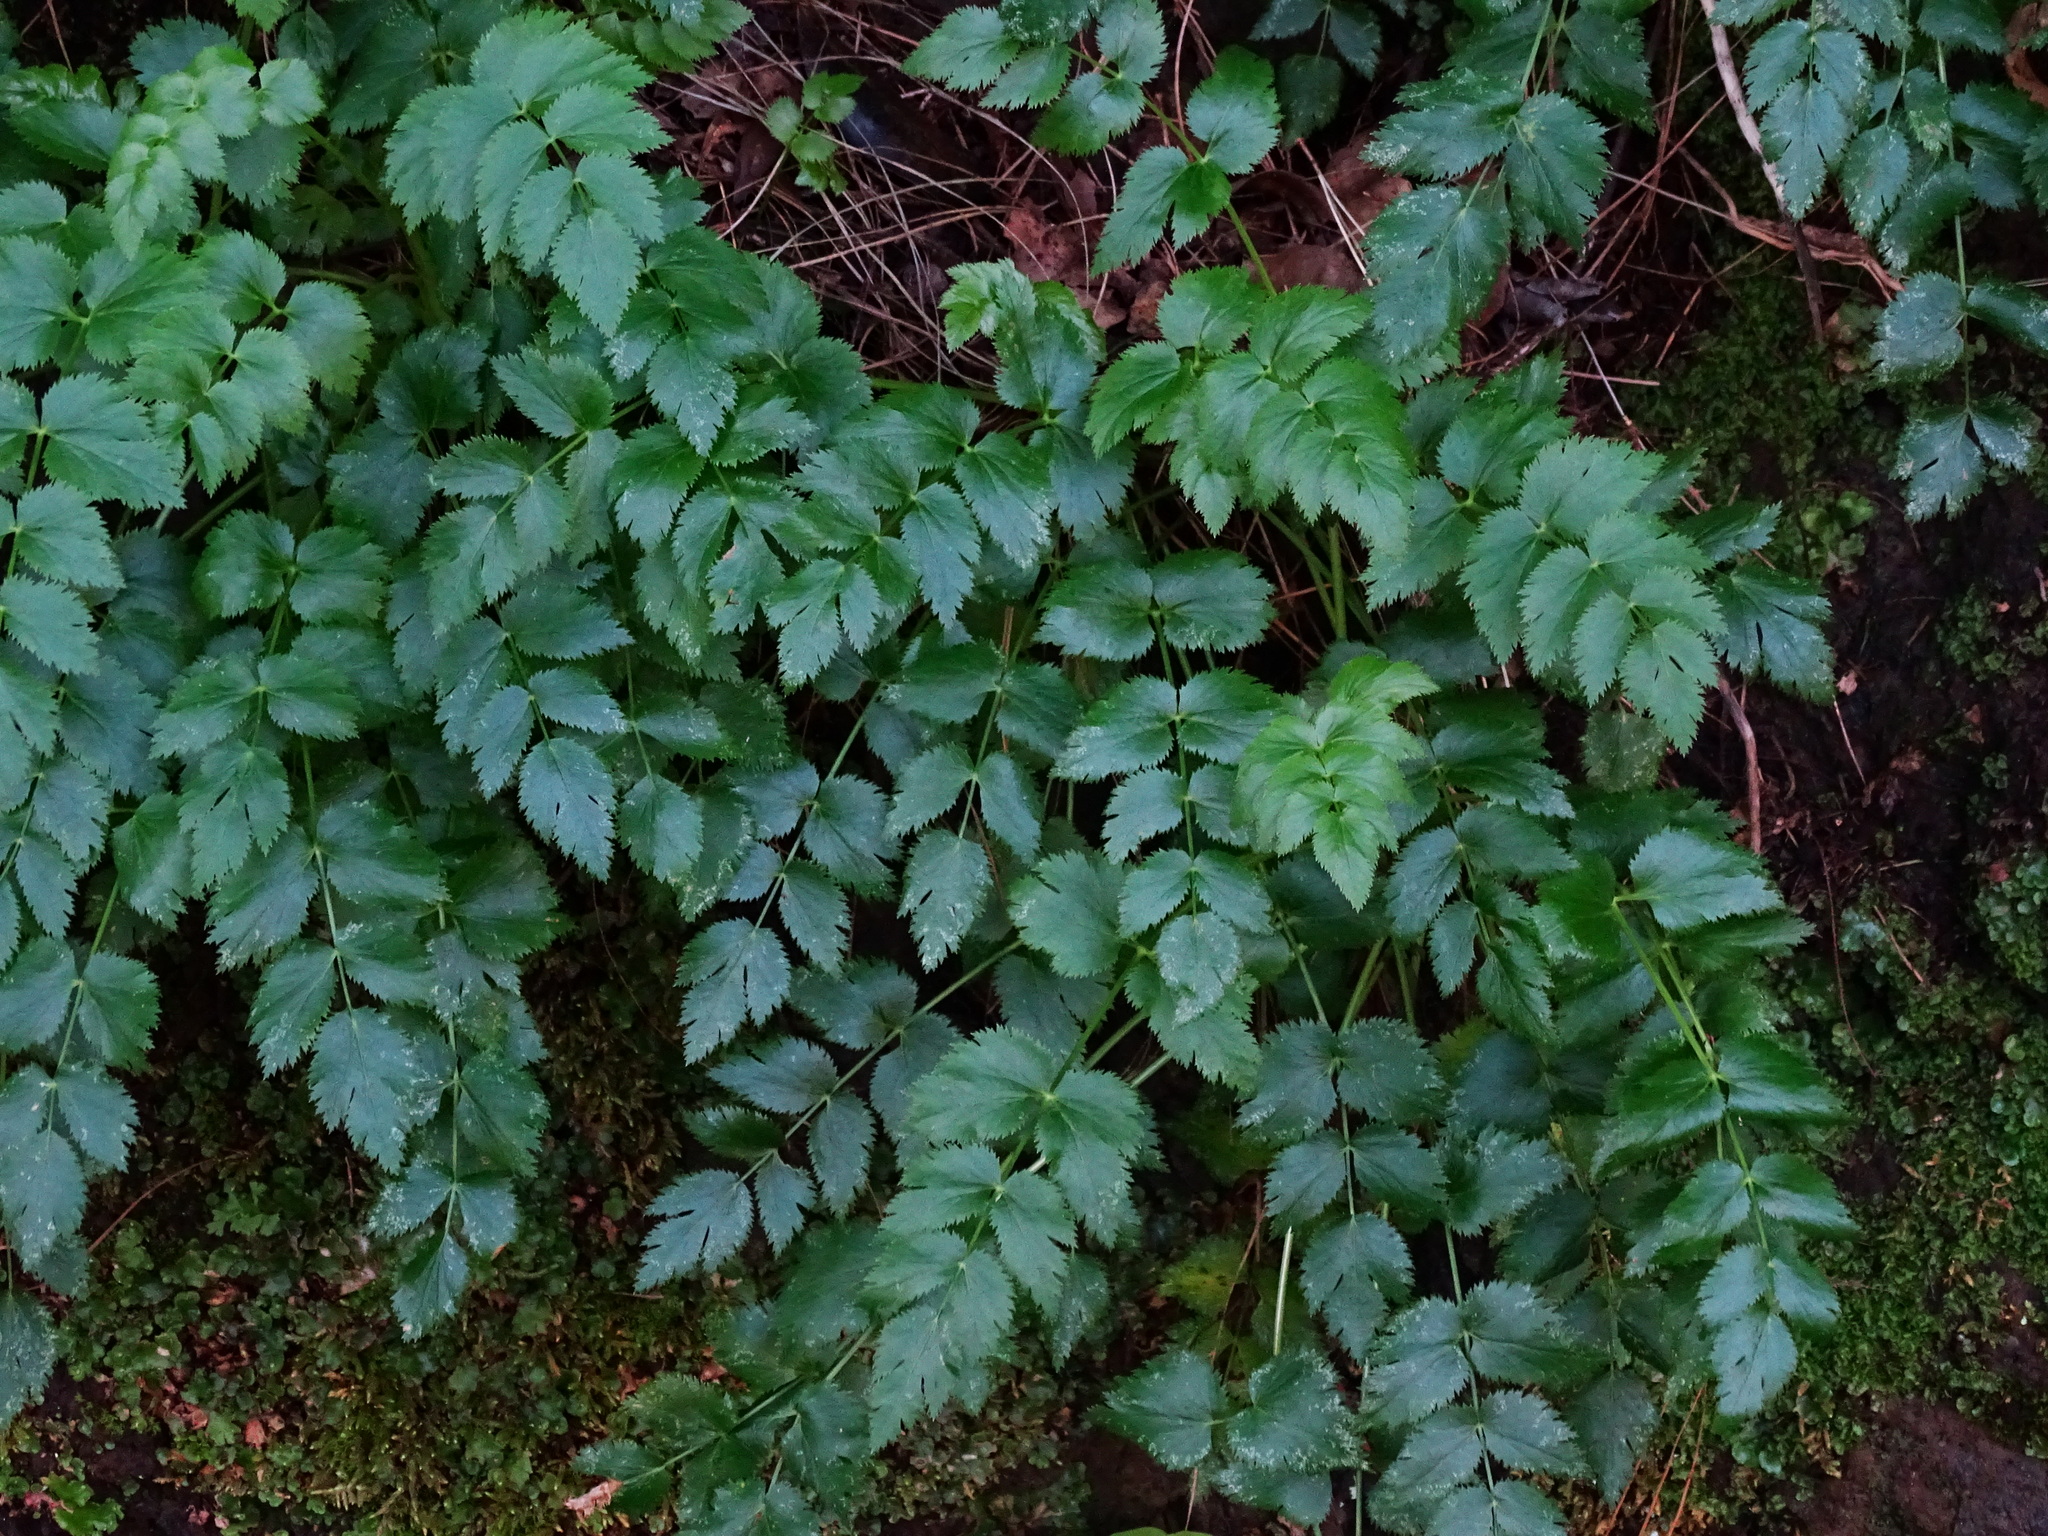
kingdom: Plantae
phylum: Tracheophyta
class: Magnoliopsida
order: Apiales
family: Apiaceae
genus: Athamanta
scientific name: Athamanta cervariifolia
